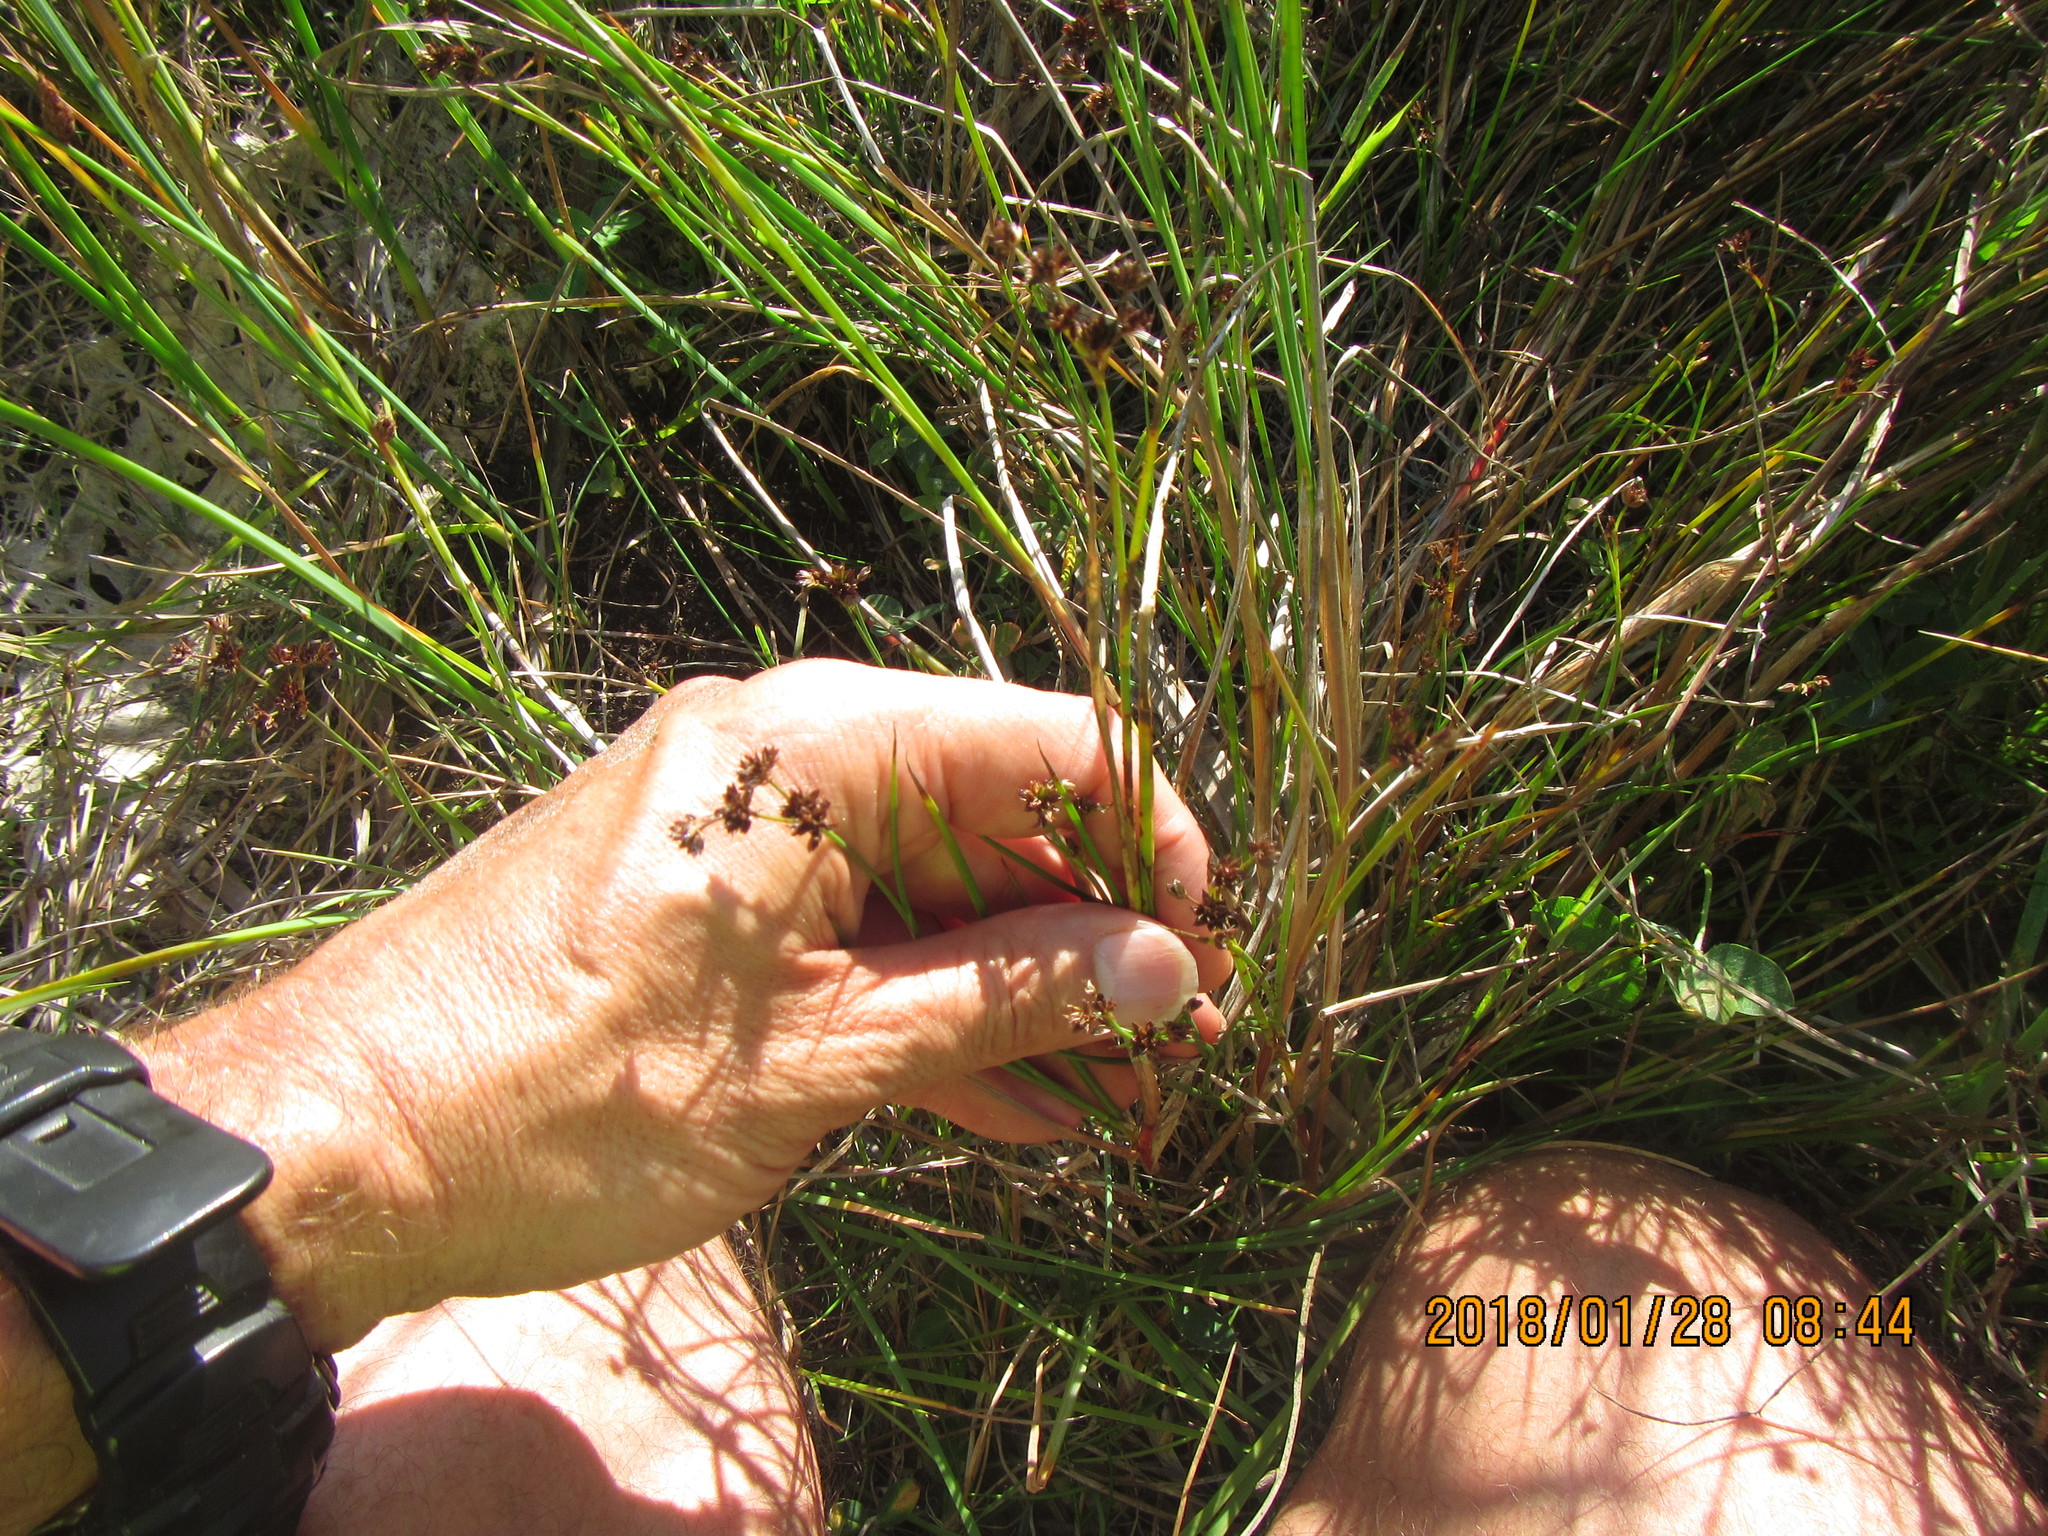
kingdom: Plantae
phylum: Tracheophyta
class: Liliopsida
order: Poales
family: Juncaceae
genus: Juncus
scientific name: Juncus articulatus
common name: Jointed rush
